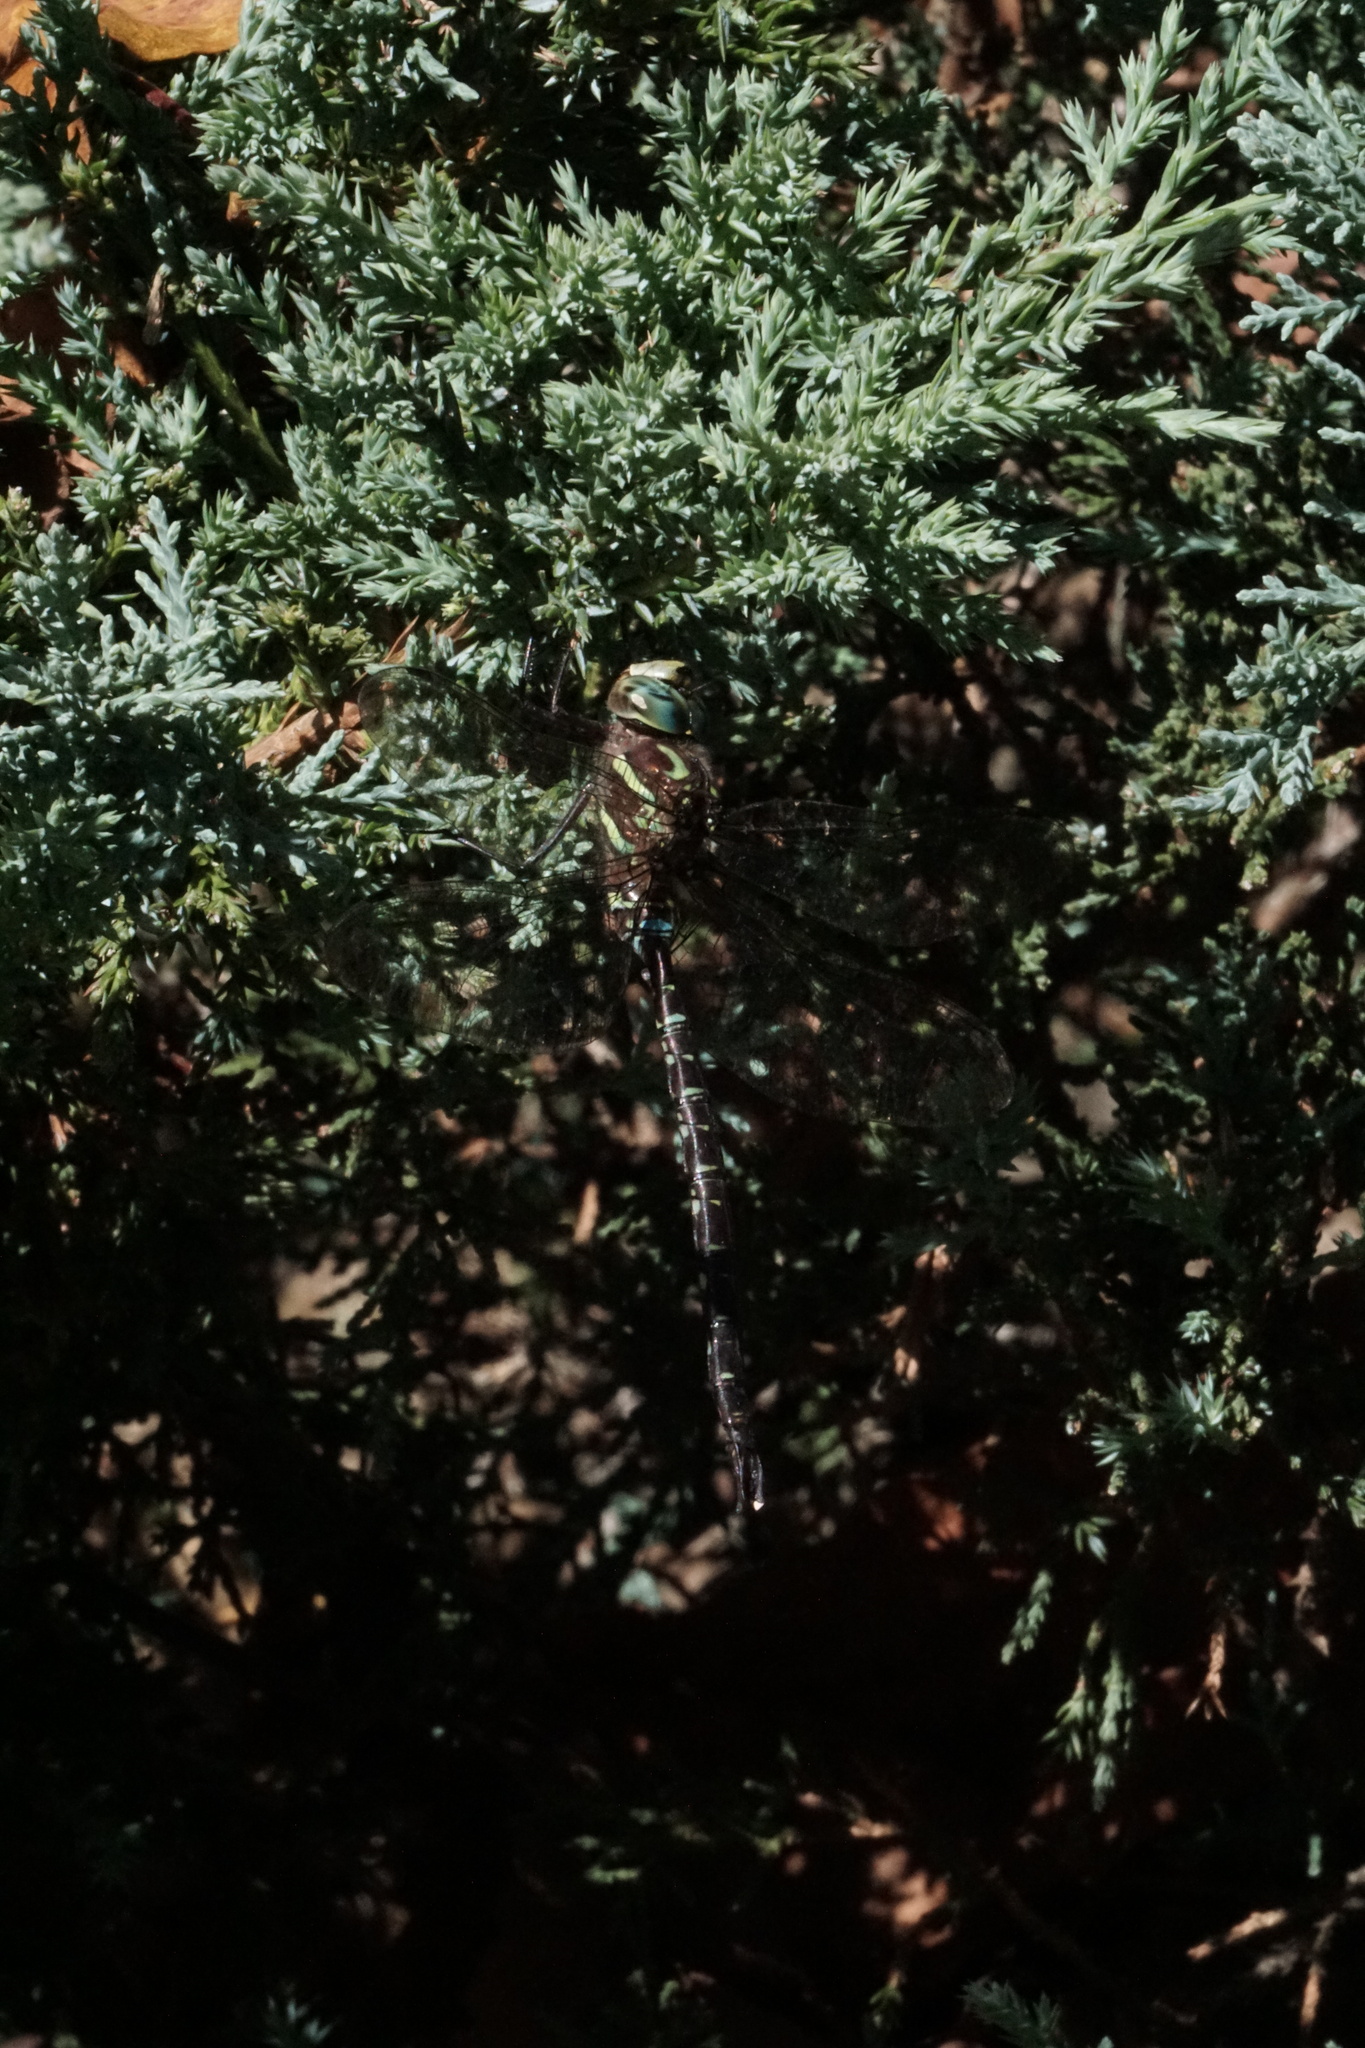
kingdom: Animalia
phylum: Arthropoda
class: Insecta
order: Odonata
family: Aeshnidae
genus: Aeshna
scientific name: Aeshna umbrosa
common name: Shadow darner
